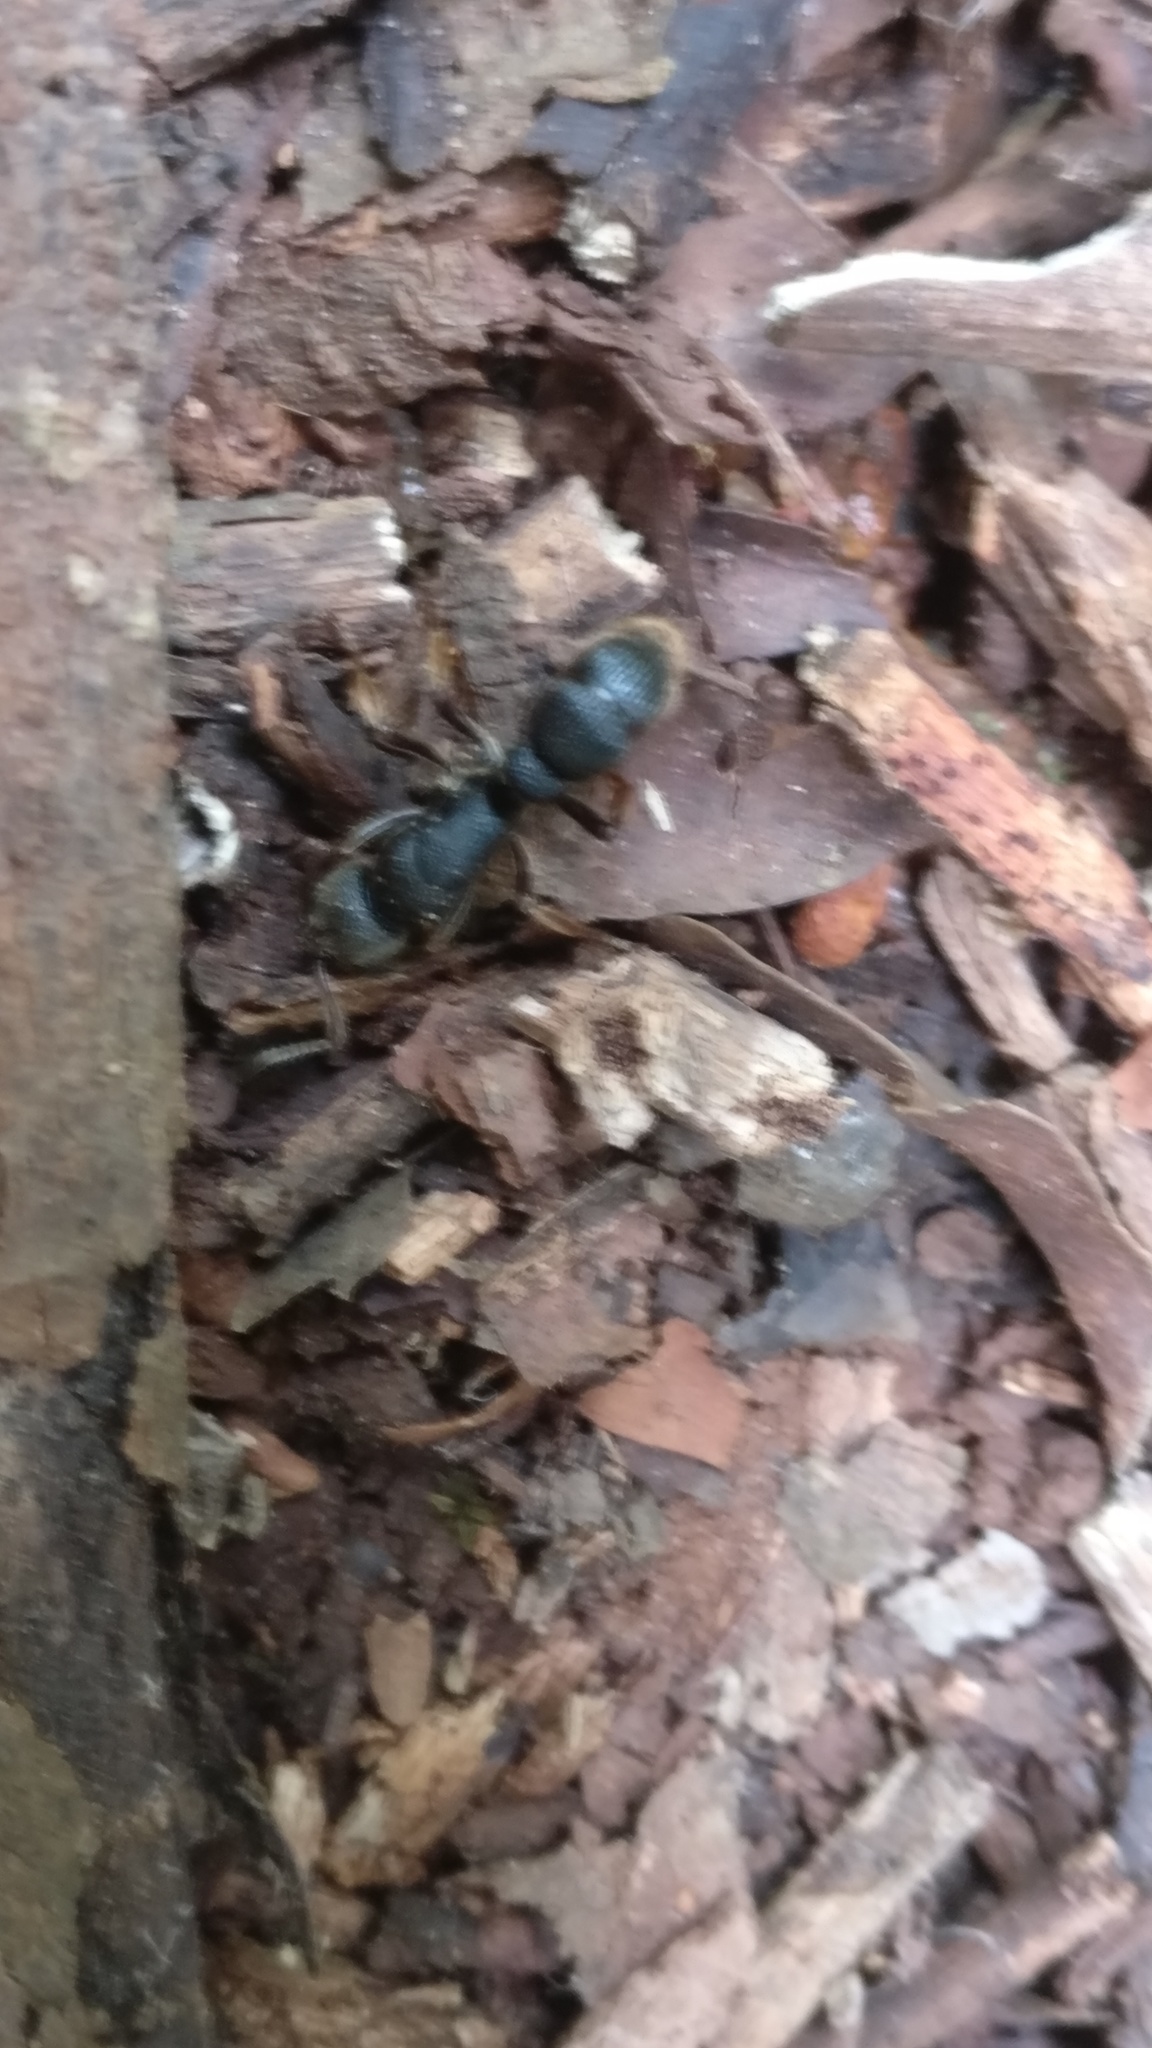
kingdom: Animalia
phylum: Arthropoda
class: Insecta
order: Hymenoptera
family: Formicidae
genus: Pseudoneoponera
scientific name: Pseudoneoponera rufipes
